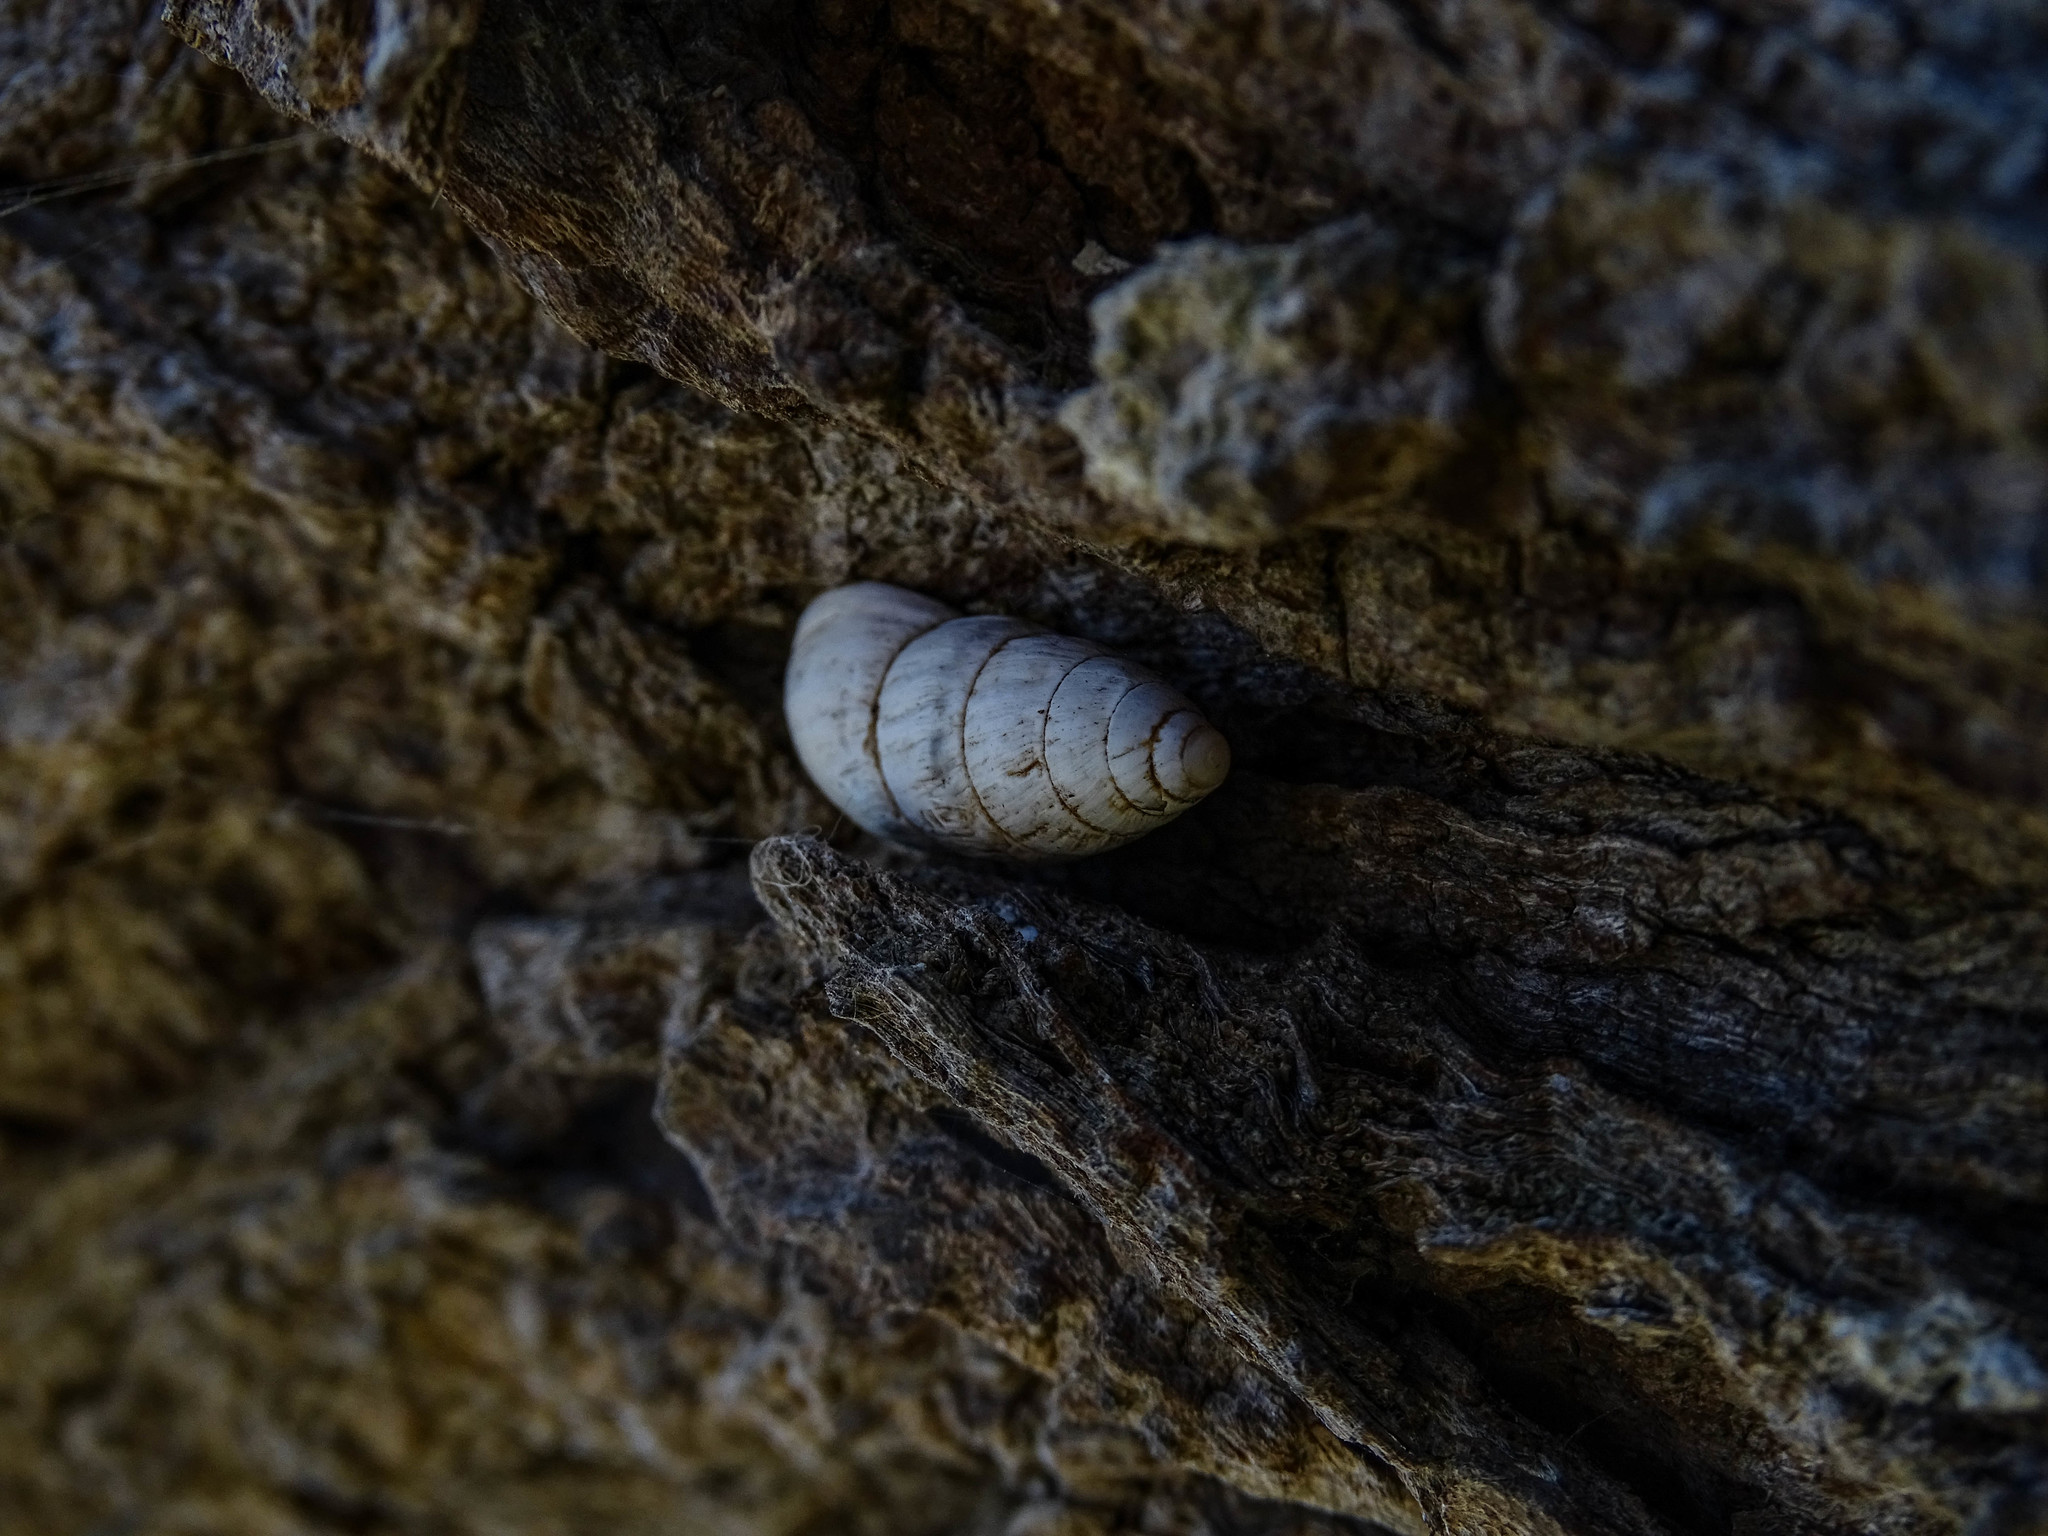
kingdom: Animalia
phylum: Mollusca
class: Gastropoda
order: Stylommatophora
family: Enidae
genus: Zebrina
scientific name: Zebrina fasciolata
